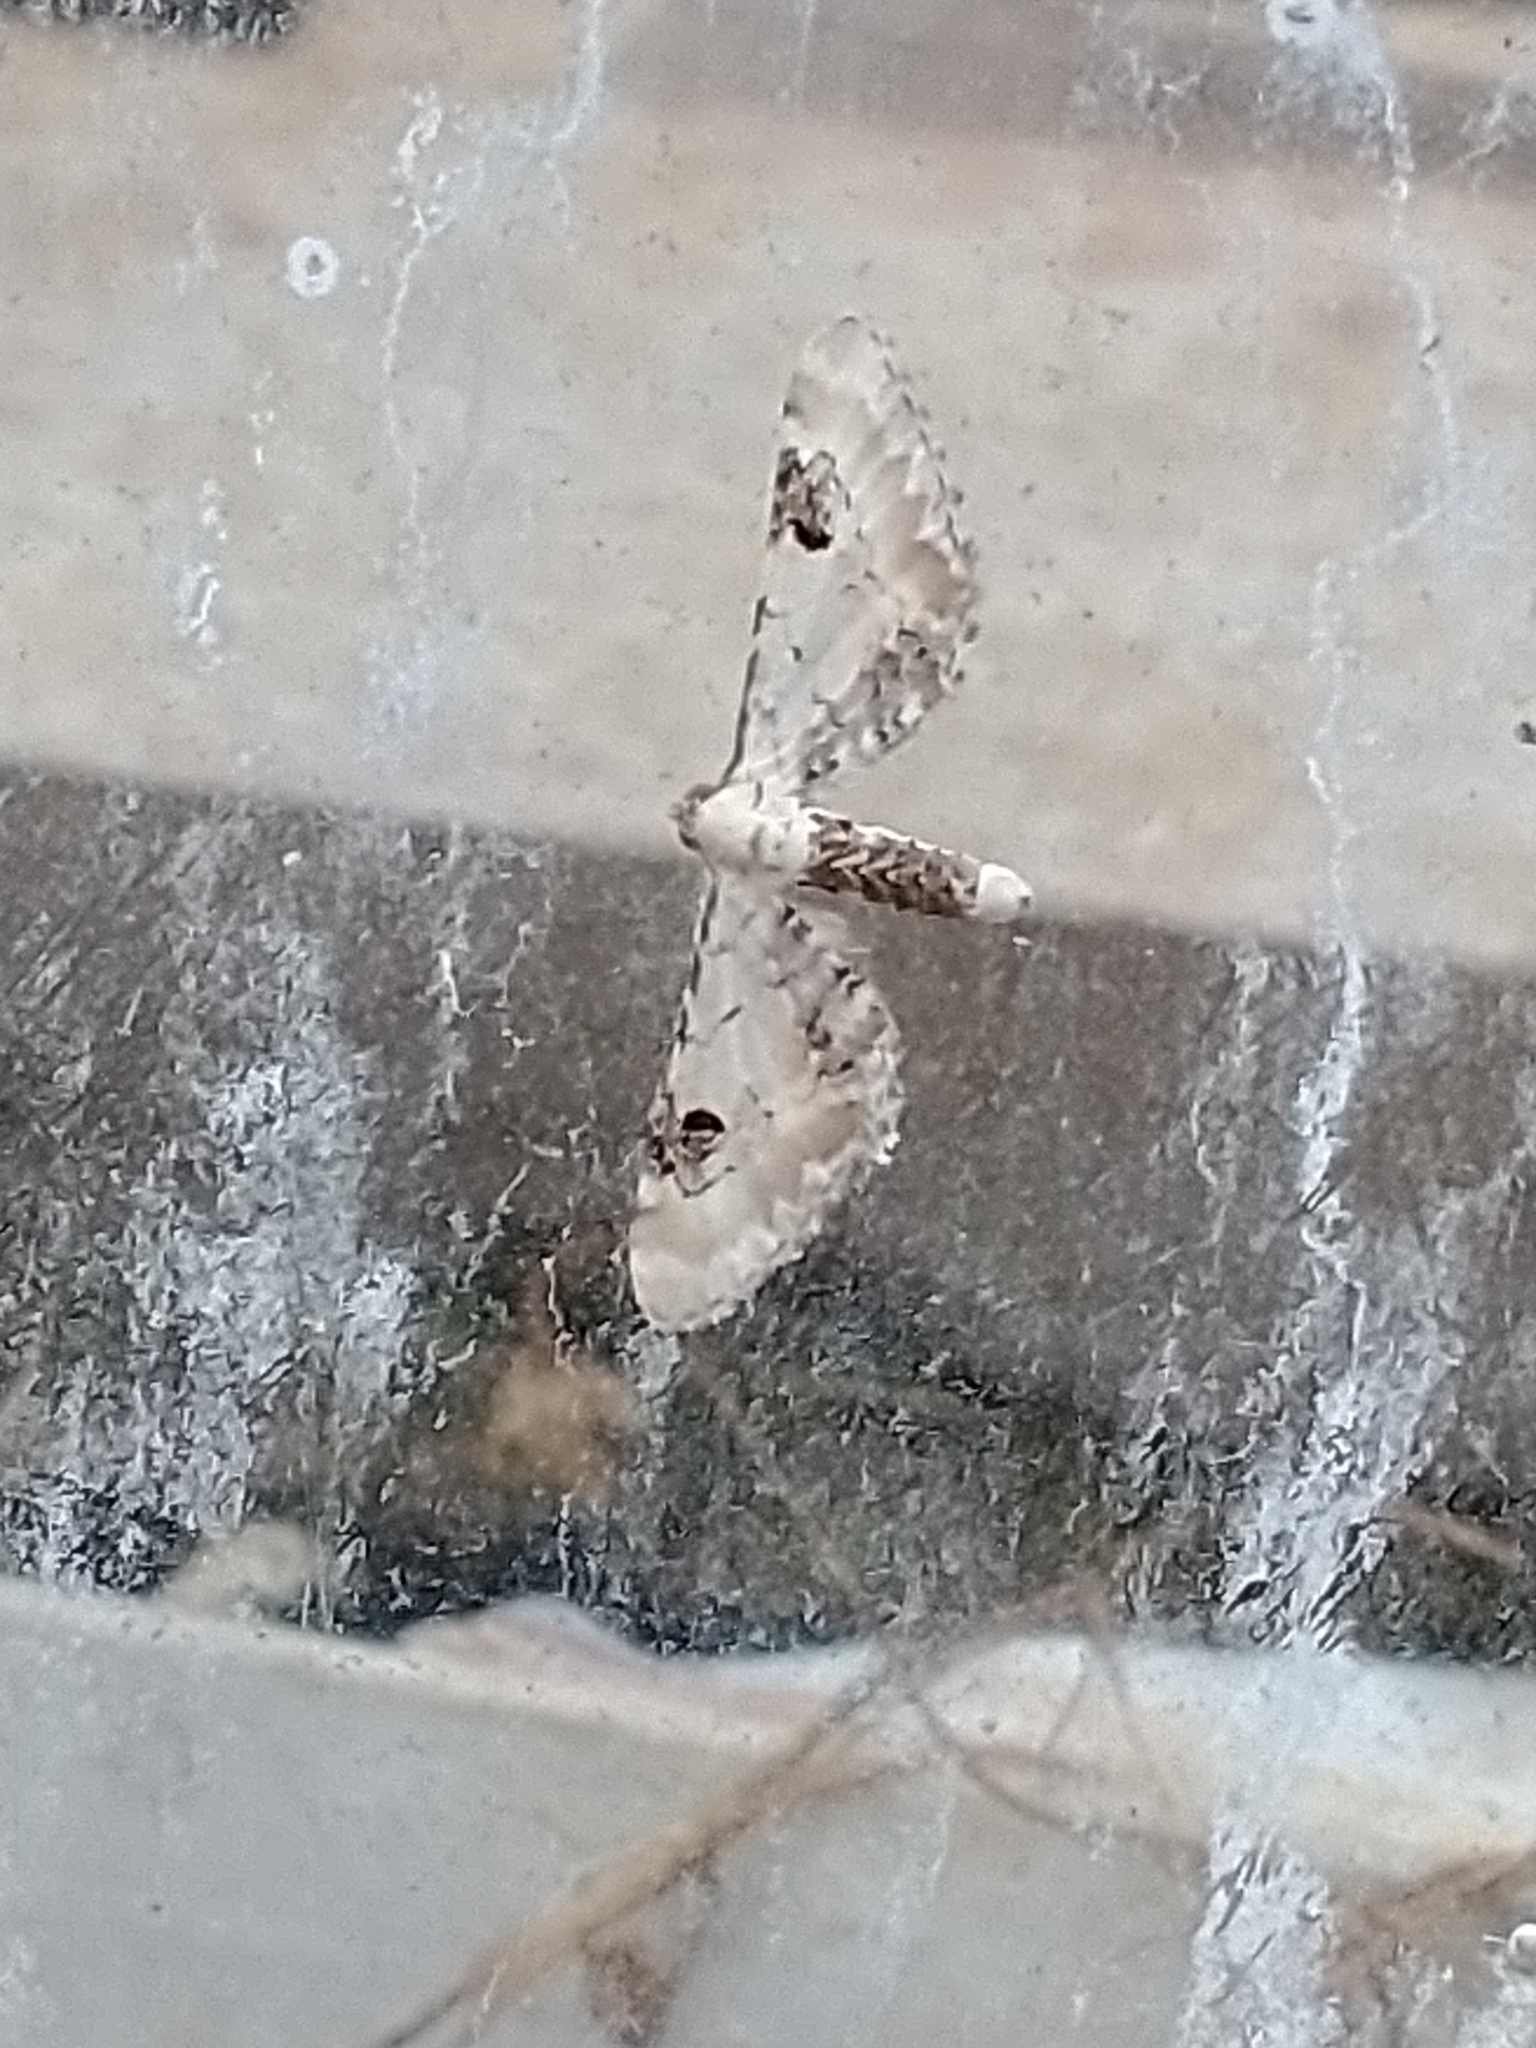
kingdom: Animalia
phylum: Arthropoda
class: Insecta
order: Lepidoptera
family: Geometridae
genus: Eupithecia
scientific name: Eupithecia centaureata
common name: Lime-speck pug
